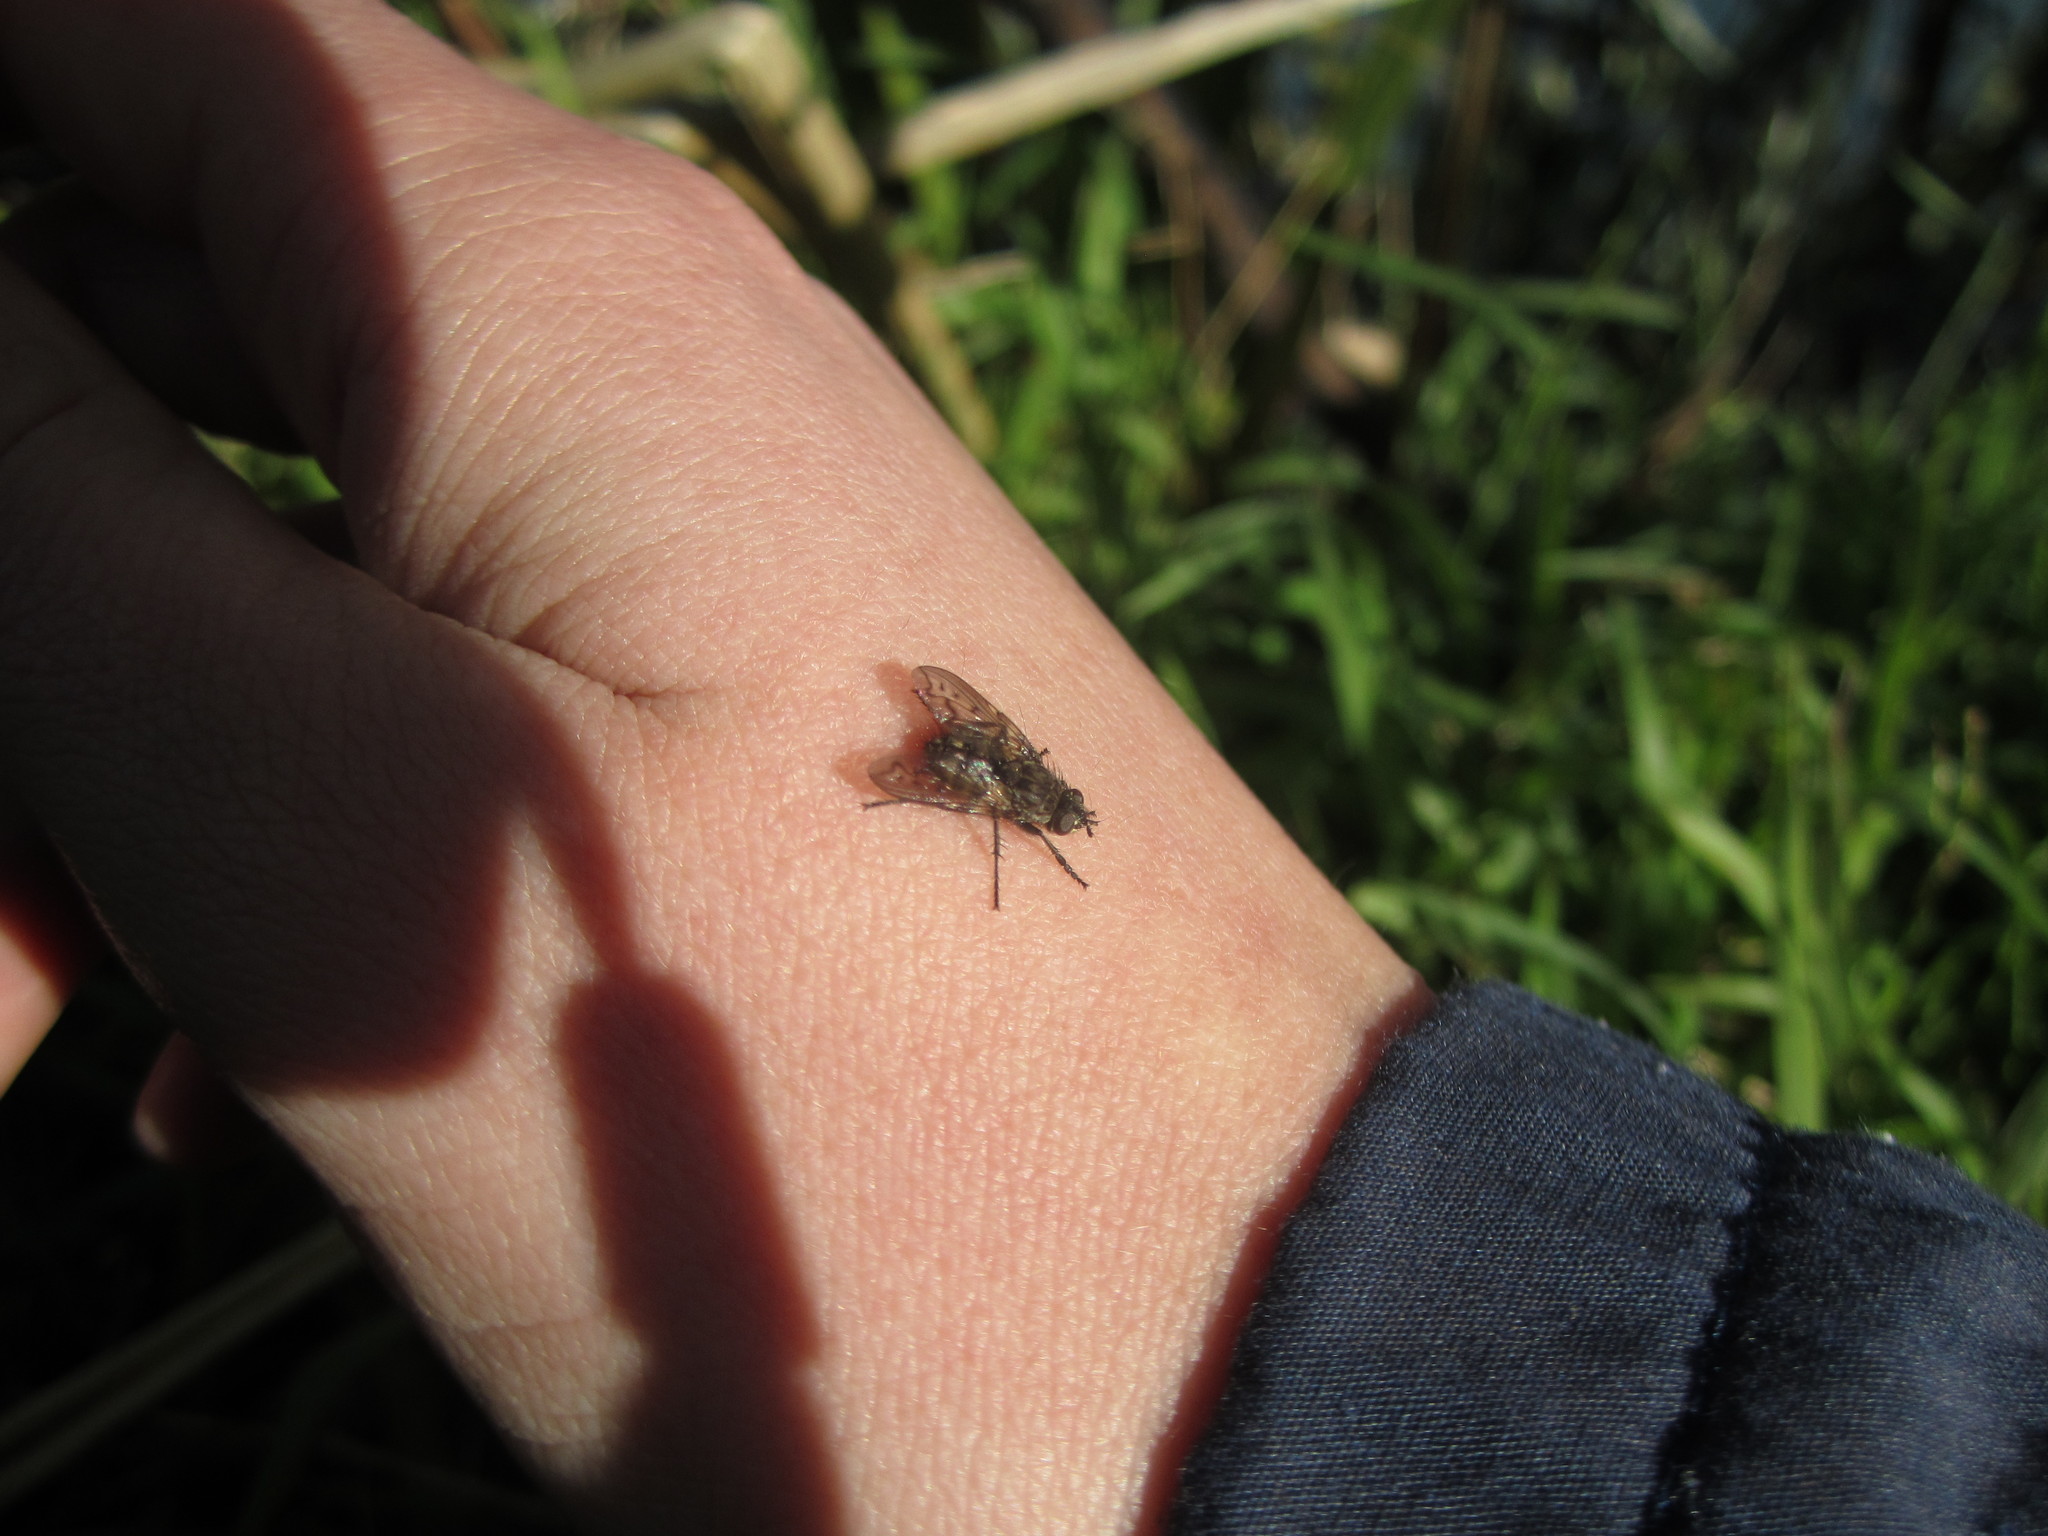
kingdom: Animalia
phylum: Arthropoda
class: Insecta
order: Diptera
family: Tachinidae
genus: Mallochomacquartia
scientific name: Mallochomacquartia vexata
